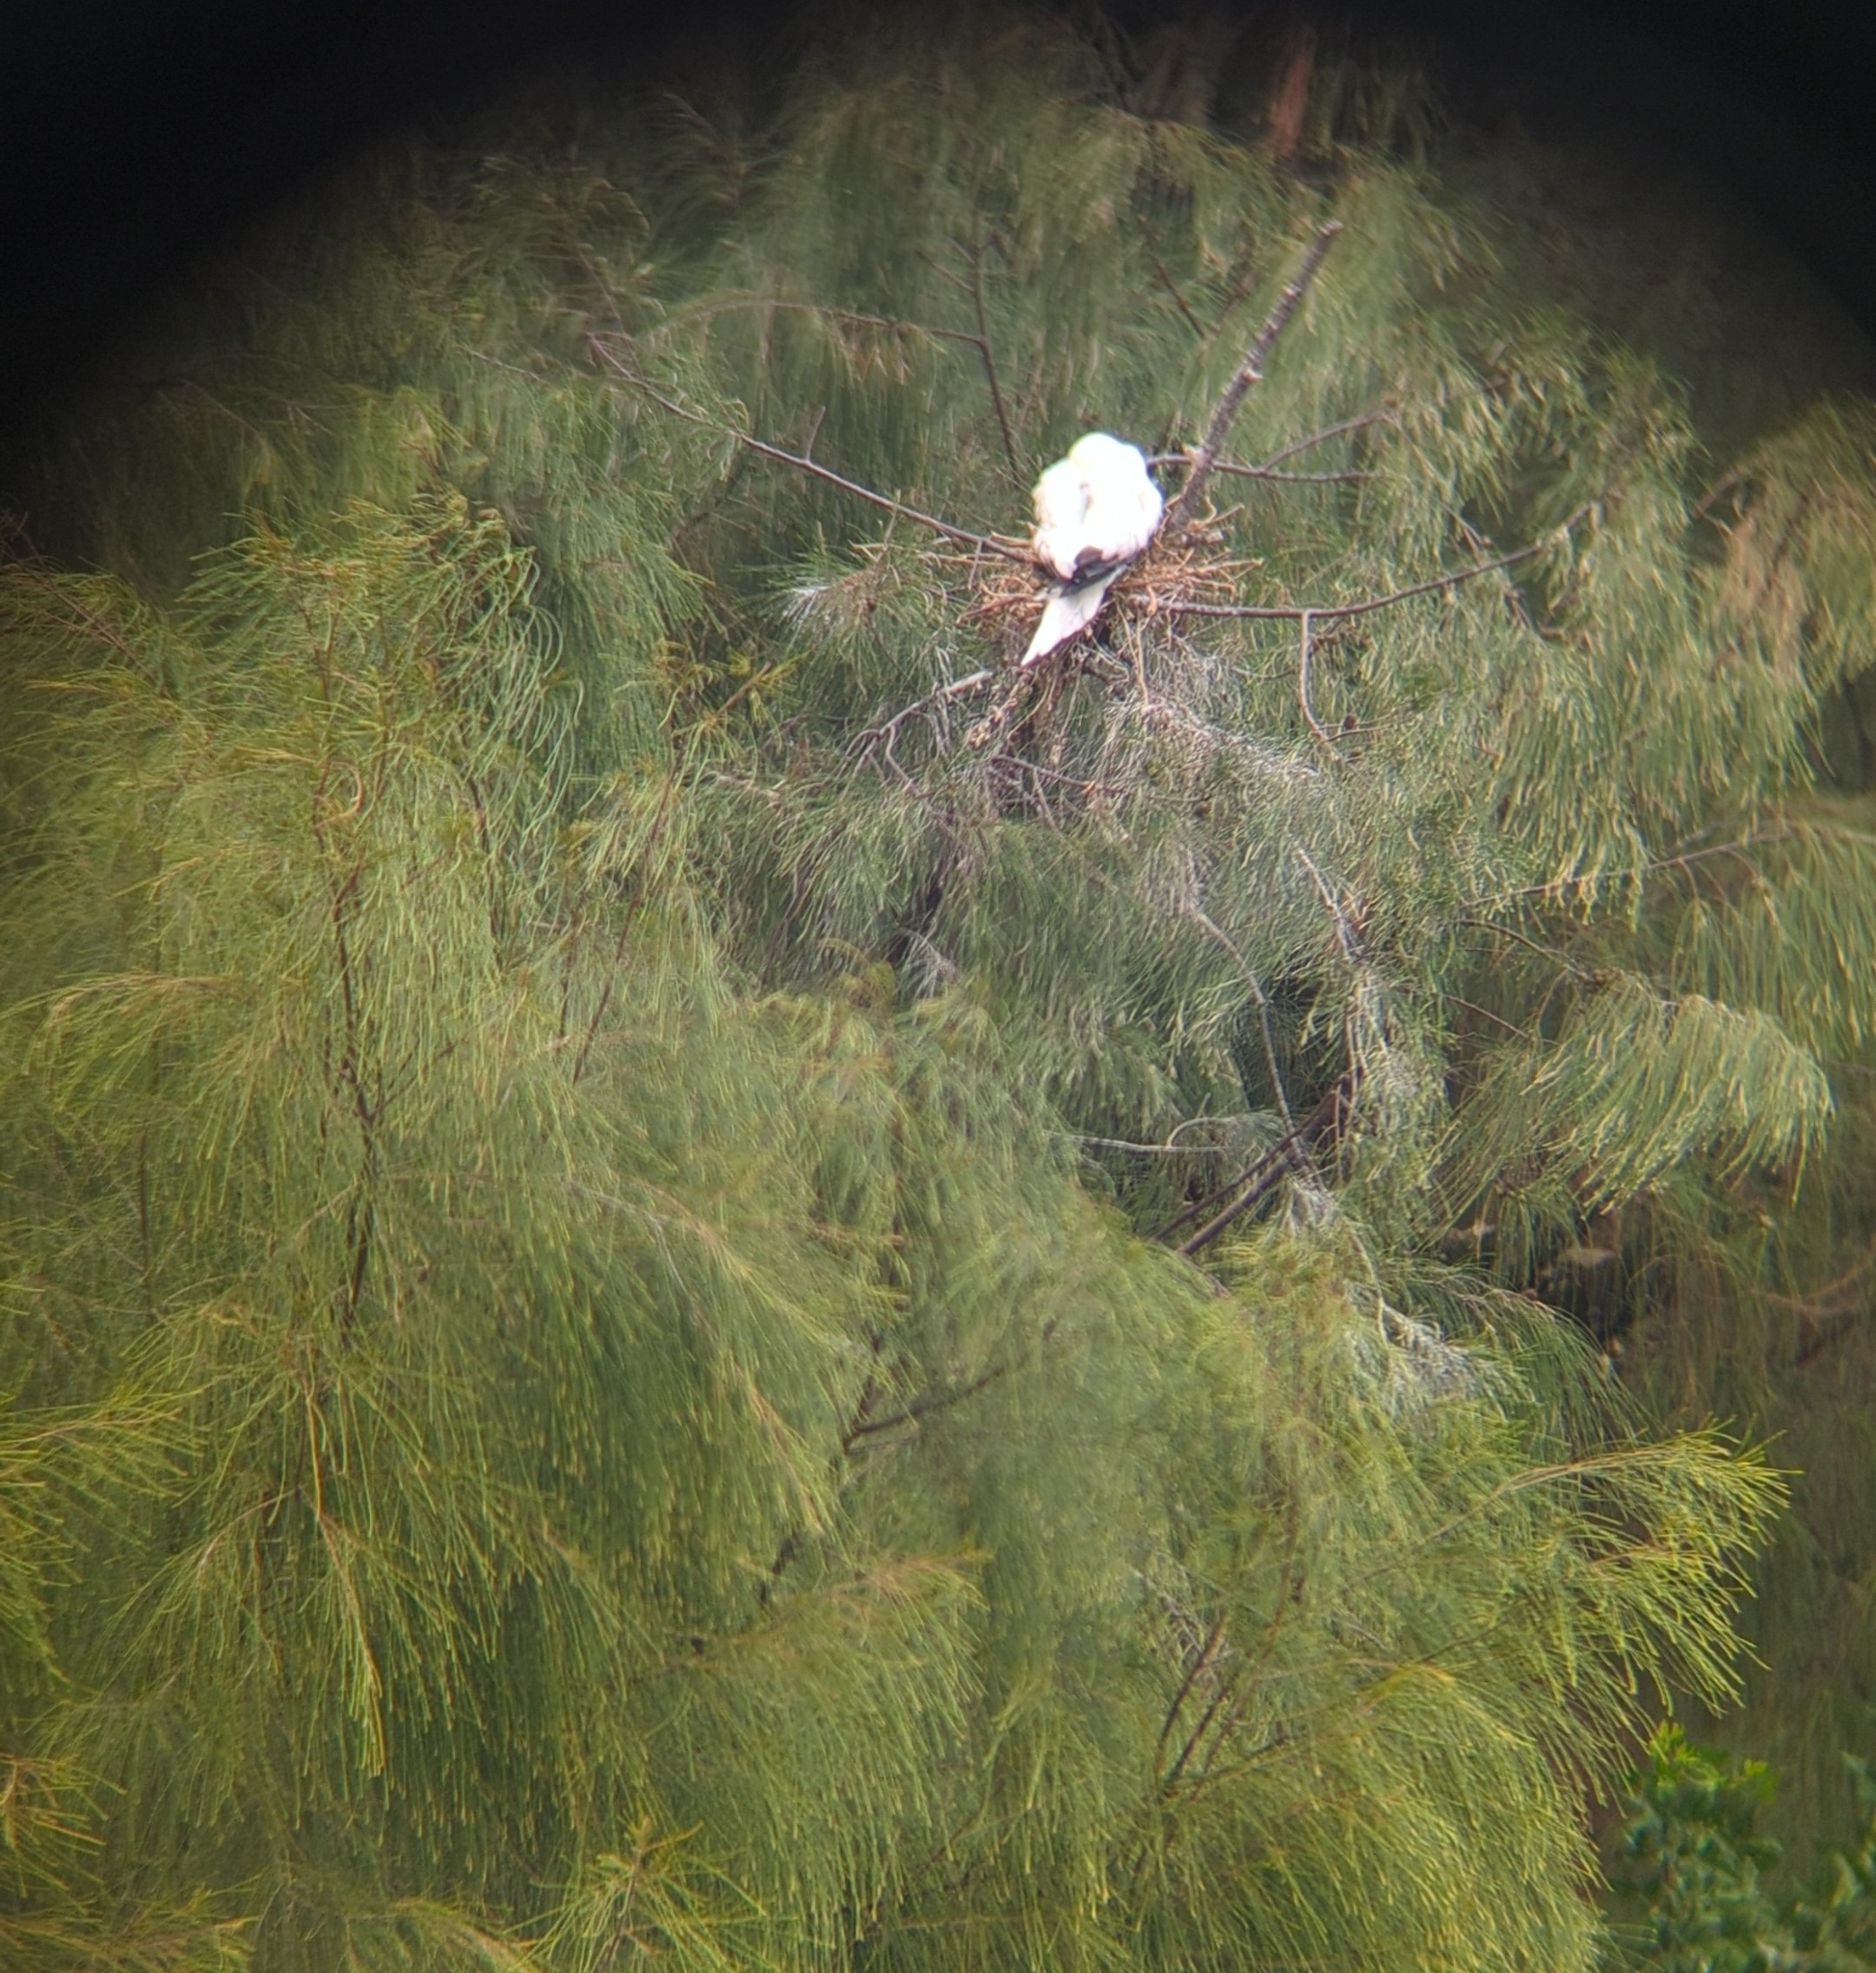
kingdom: Animalia
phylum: Chordata
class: Aves
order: Suliformes
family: Sulidae
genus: Sula
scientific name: Sula sula
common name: Red-footed booby
